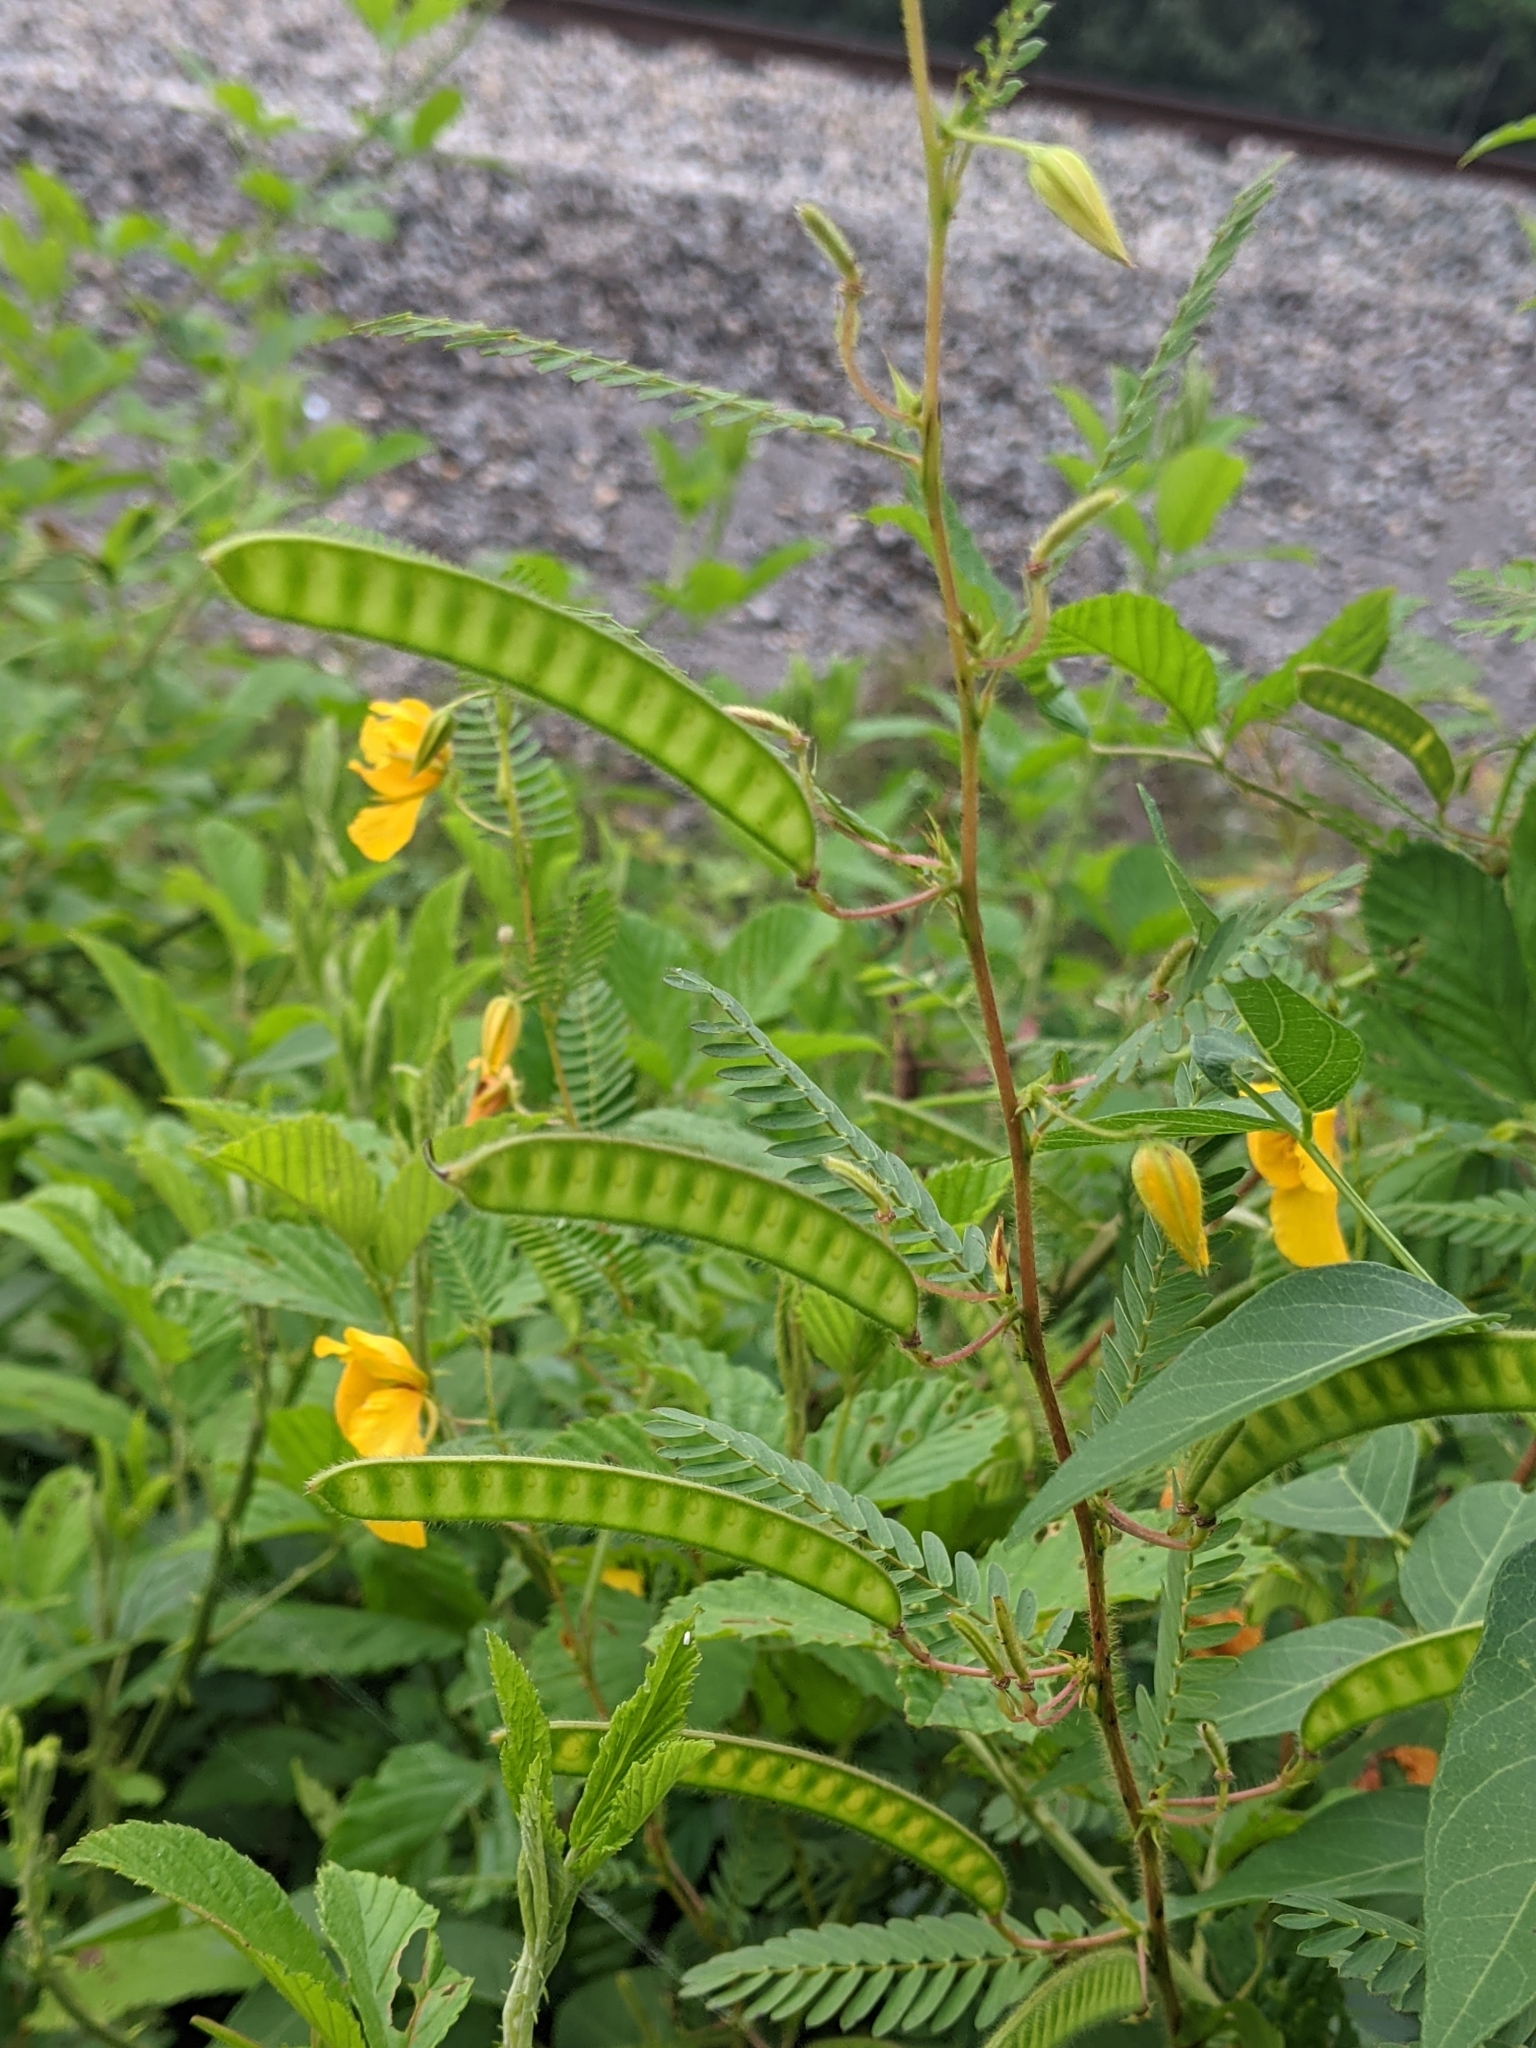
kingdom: Plantae
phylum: Tracheophyta
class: Magnoliopsida
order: Fabales
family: Fabaceae
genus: Chamaecrista
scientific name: Chamaecrista fasciculata
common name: Golden cassia
